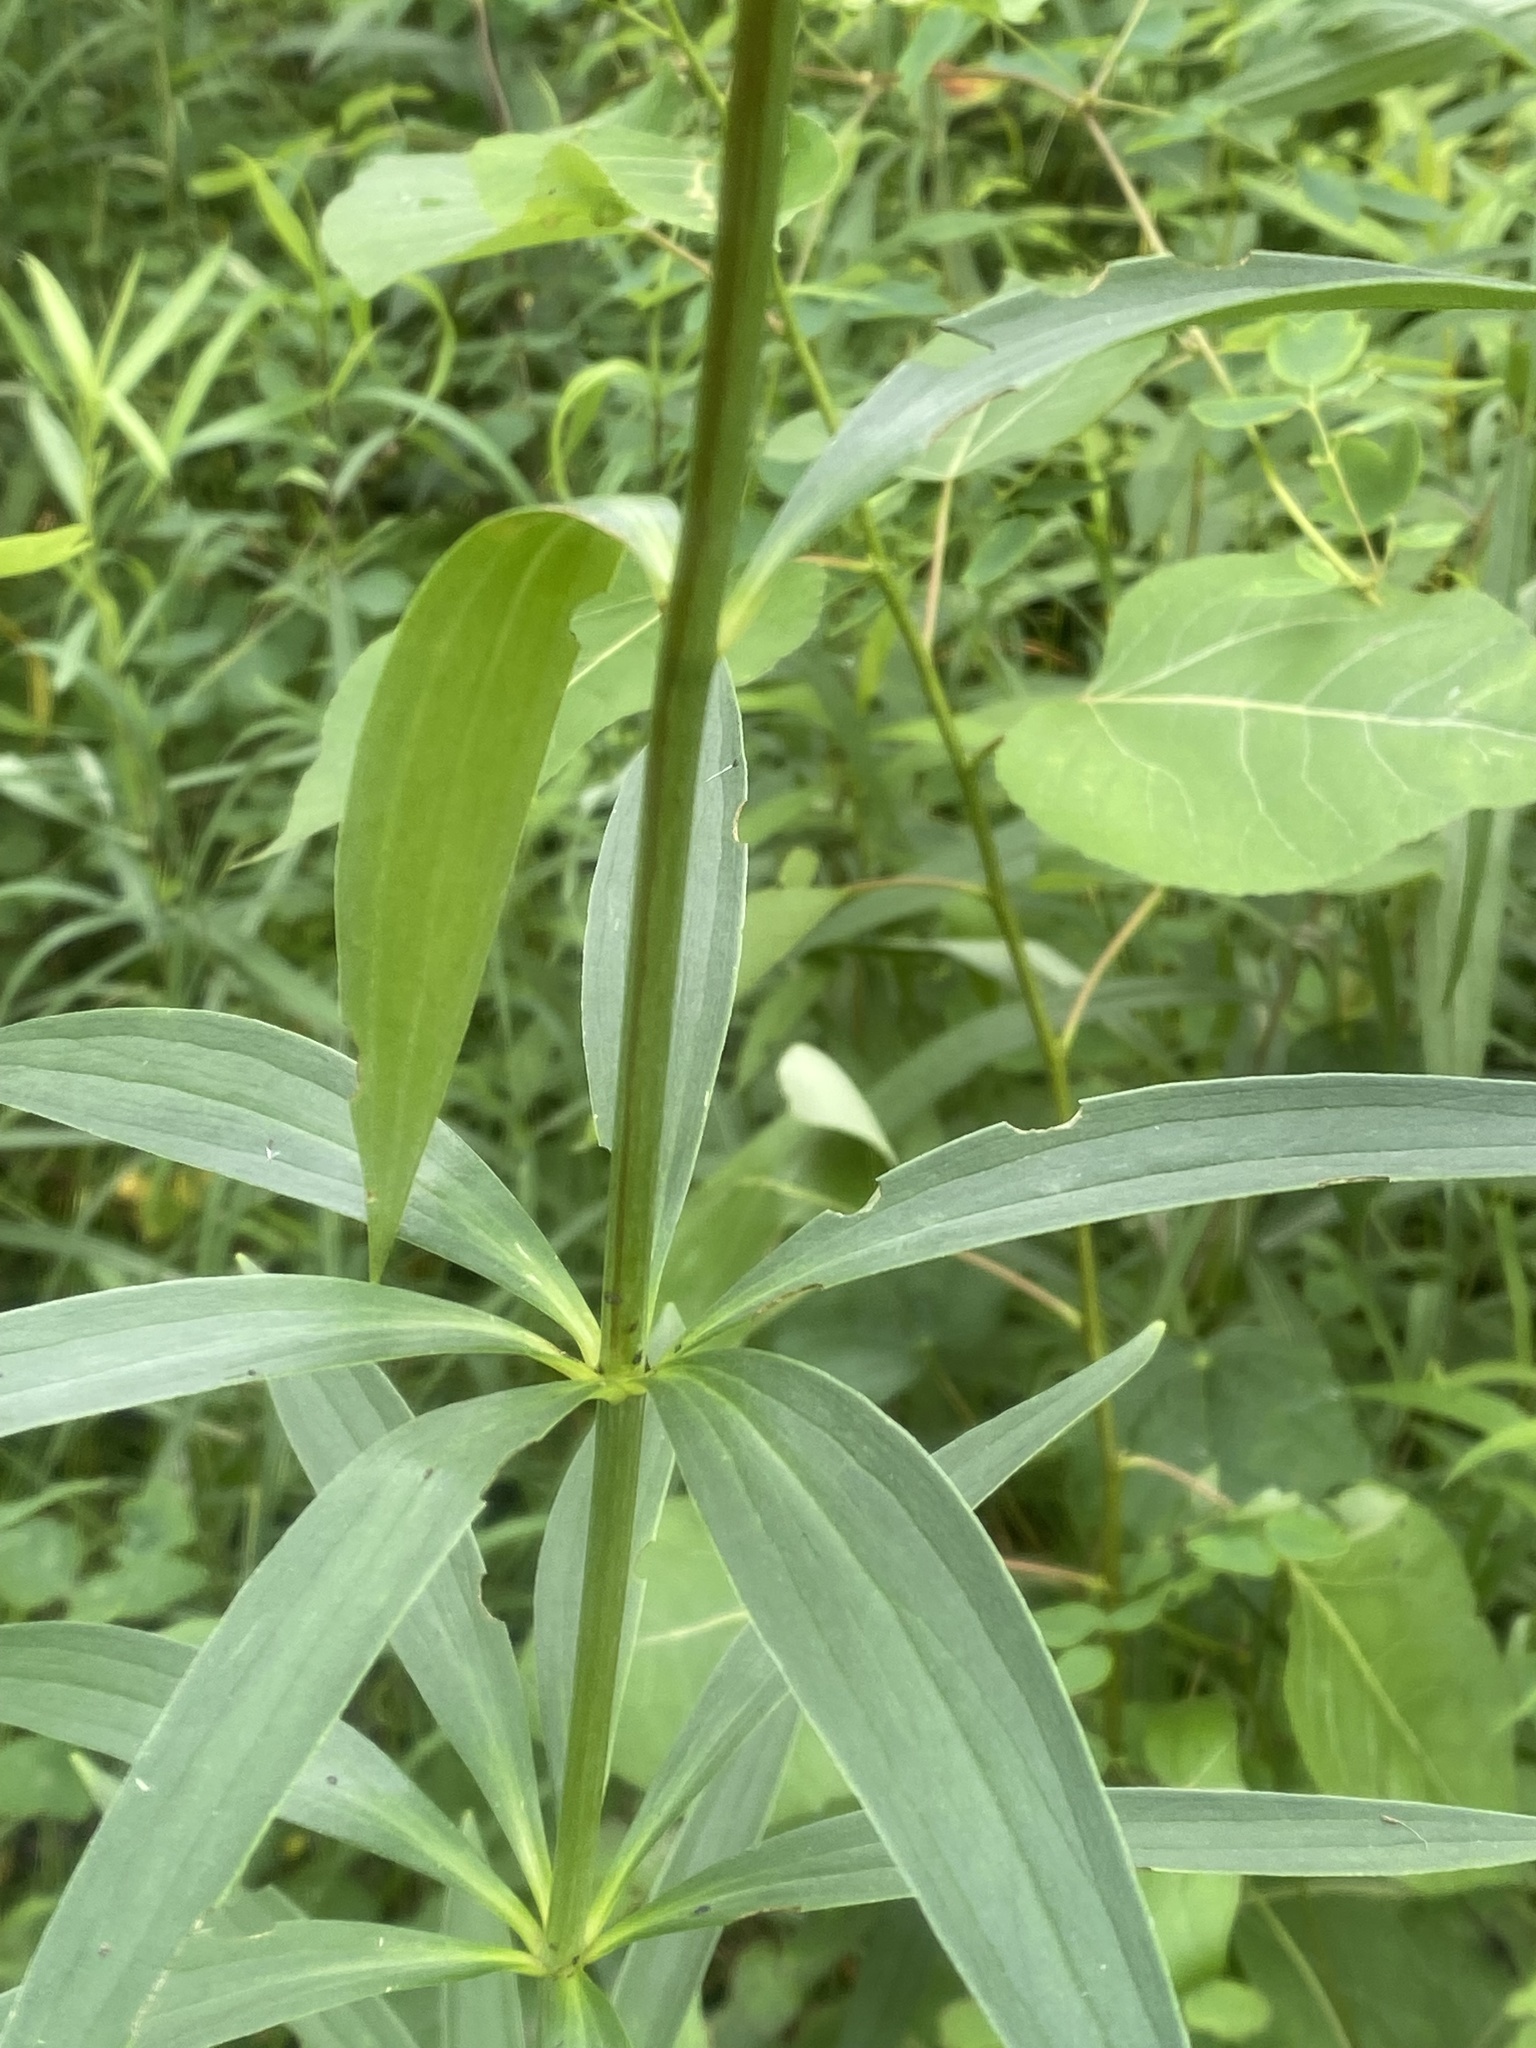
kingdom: Plantae
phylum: Tracheophyta
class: Liliopsida
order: Liliales
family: Liliaceae
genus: Lilium
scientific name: Lilium michiganense
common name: Michigan lily
